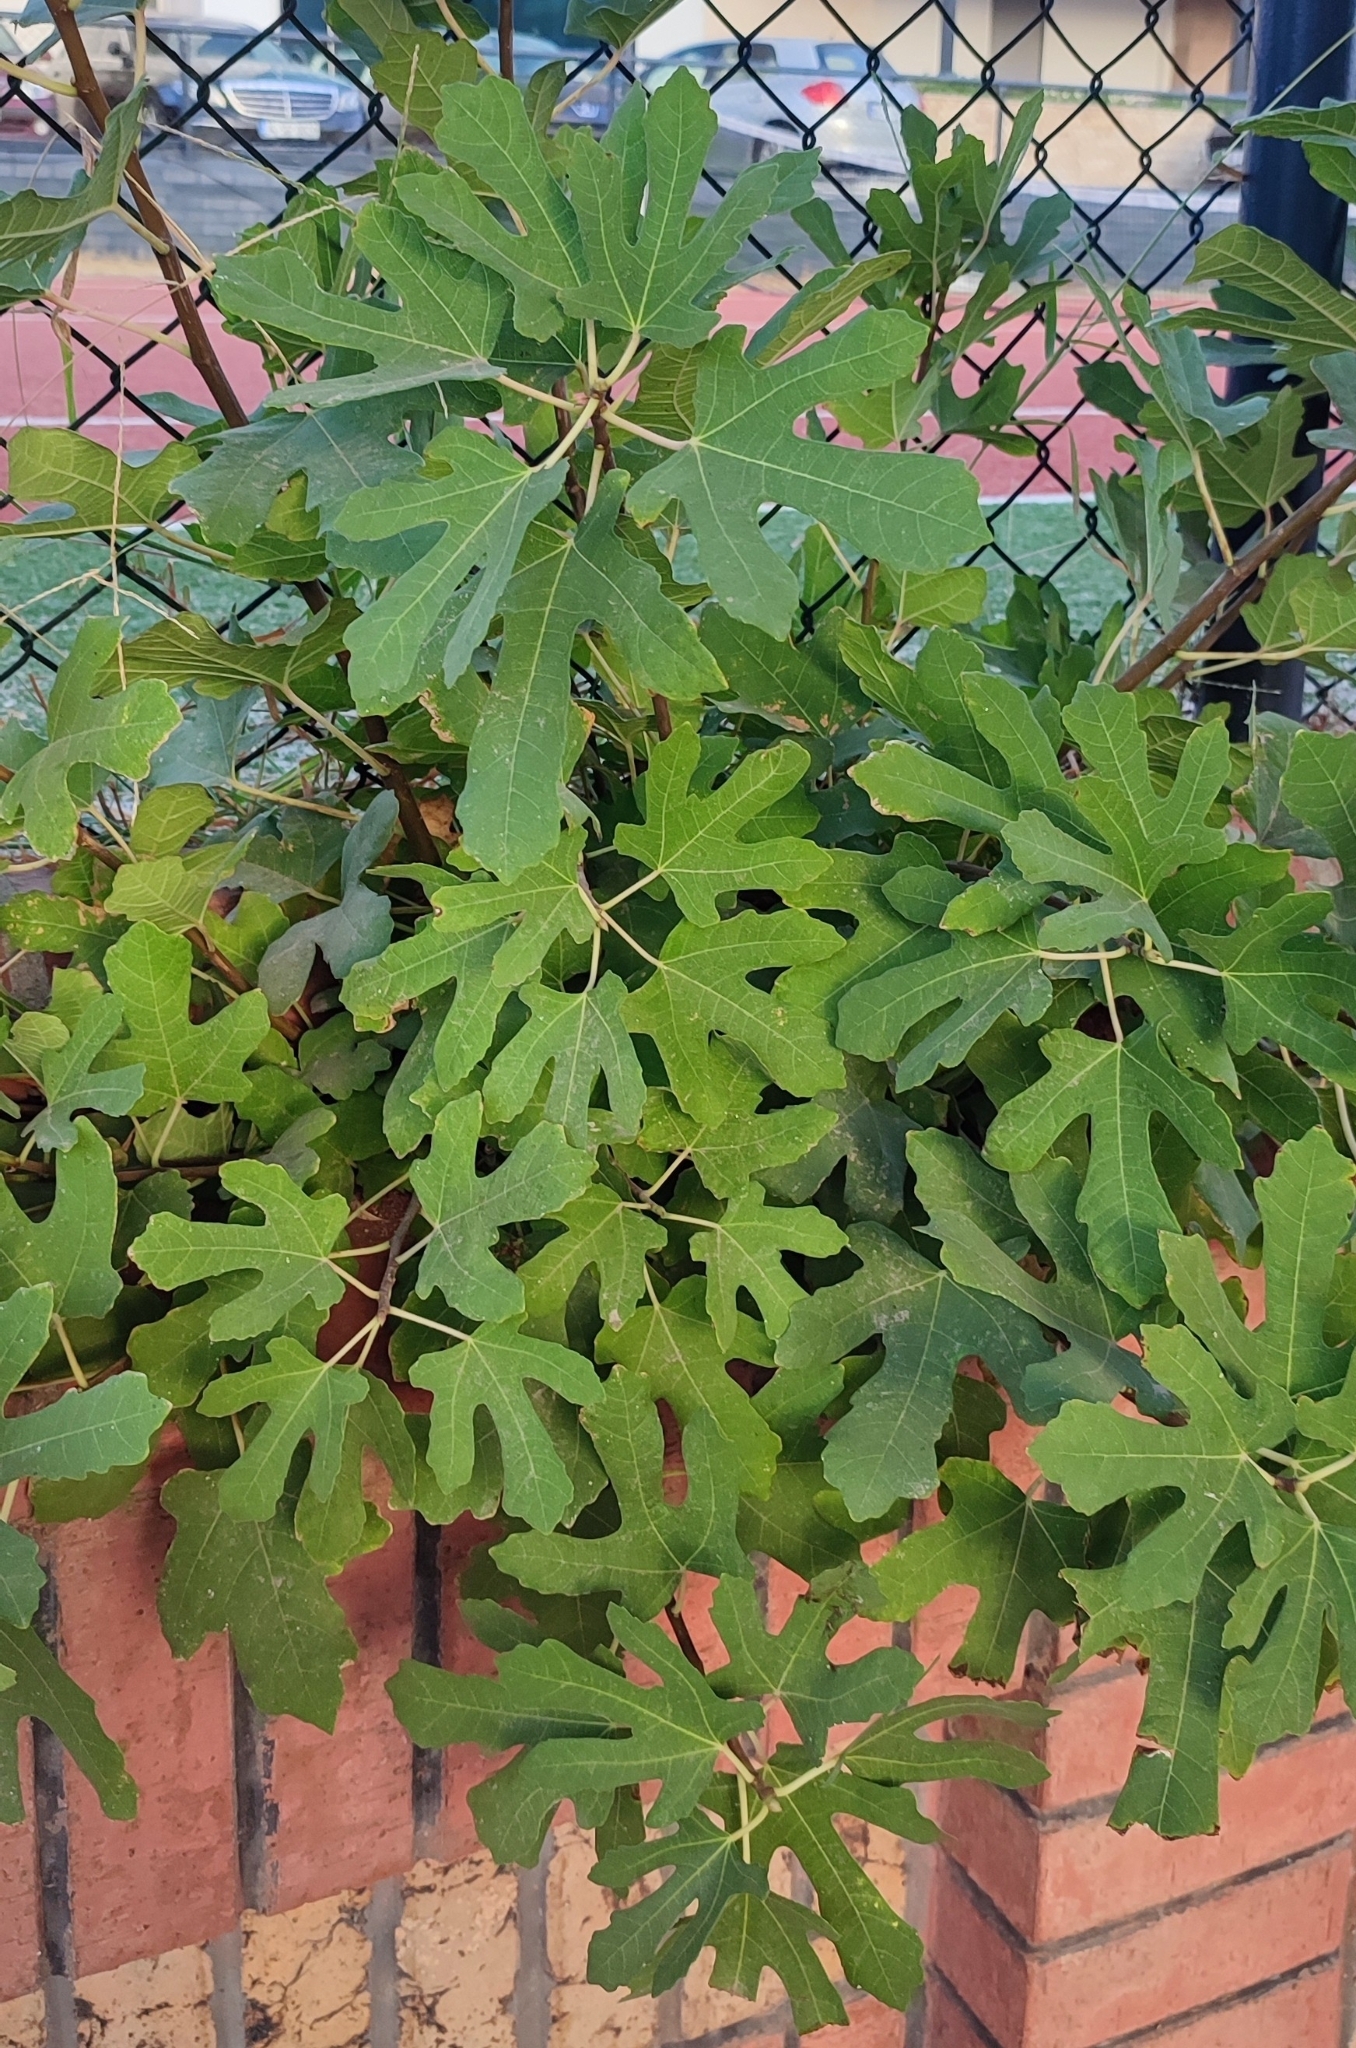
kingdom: Plantae
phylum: Tracheophyta
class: Magnoliopsida
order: Rosales
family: Moraceae
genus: Ficus
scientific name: Ficus carica
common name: Fig
